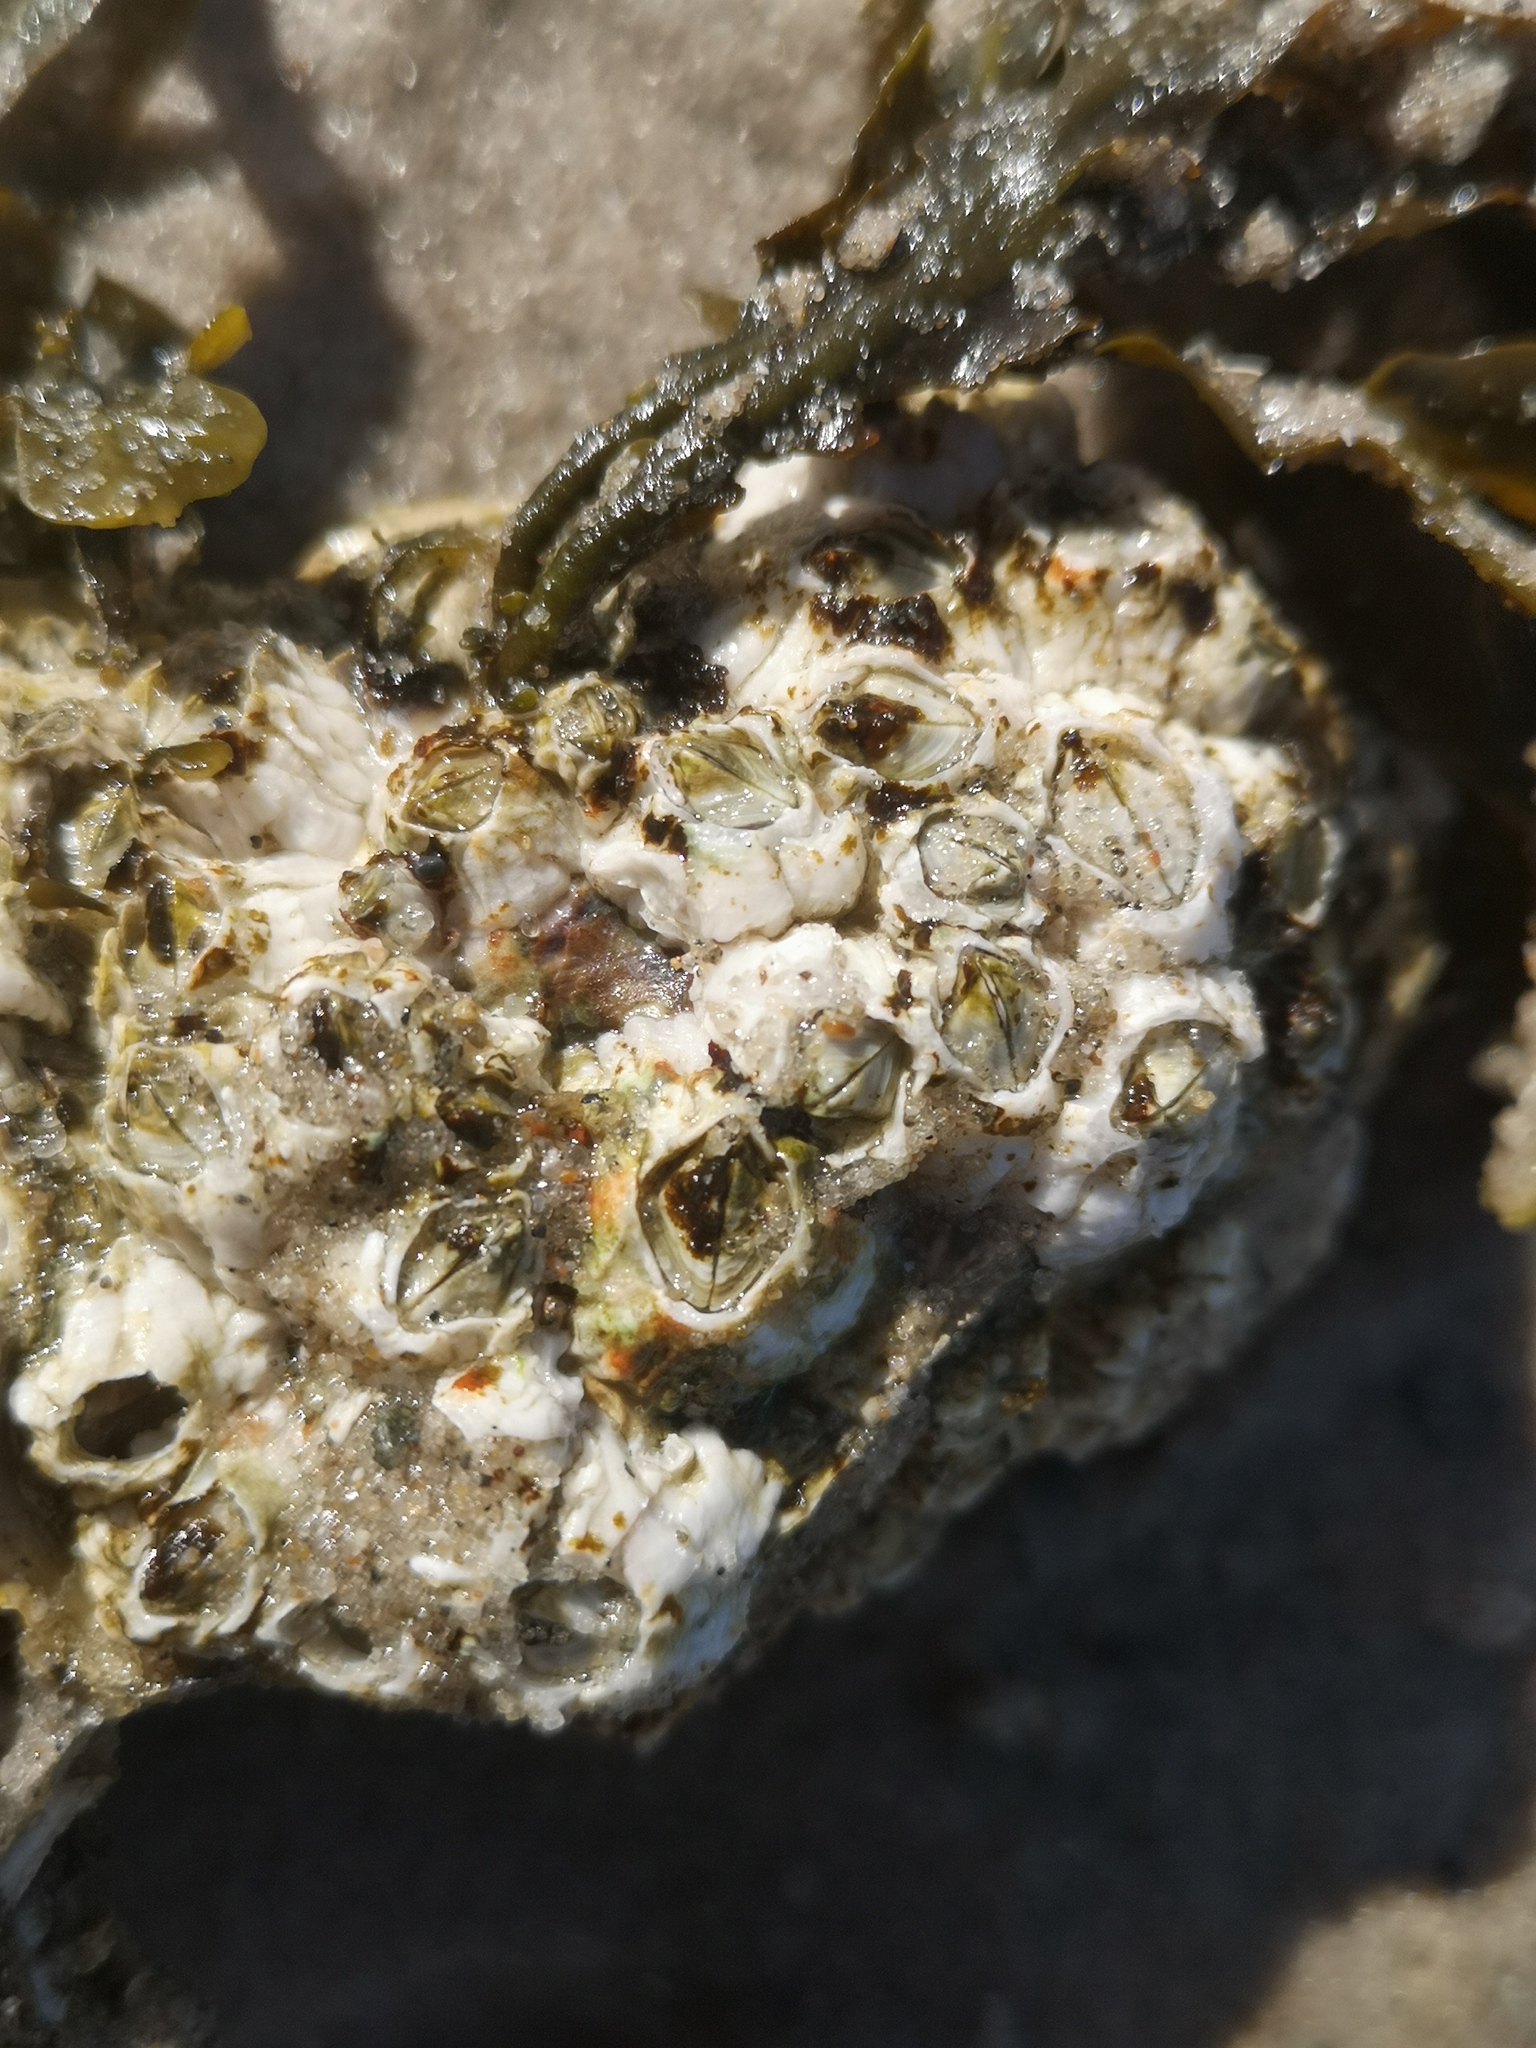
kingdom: Animalia
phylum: Arthropoda
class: Maxillopoda
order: Sessilia
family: Archaeobalanidae
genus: Semibalanus
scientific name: Semibalanus balanoides
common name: Acorn barnacle
